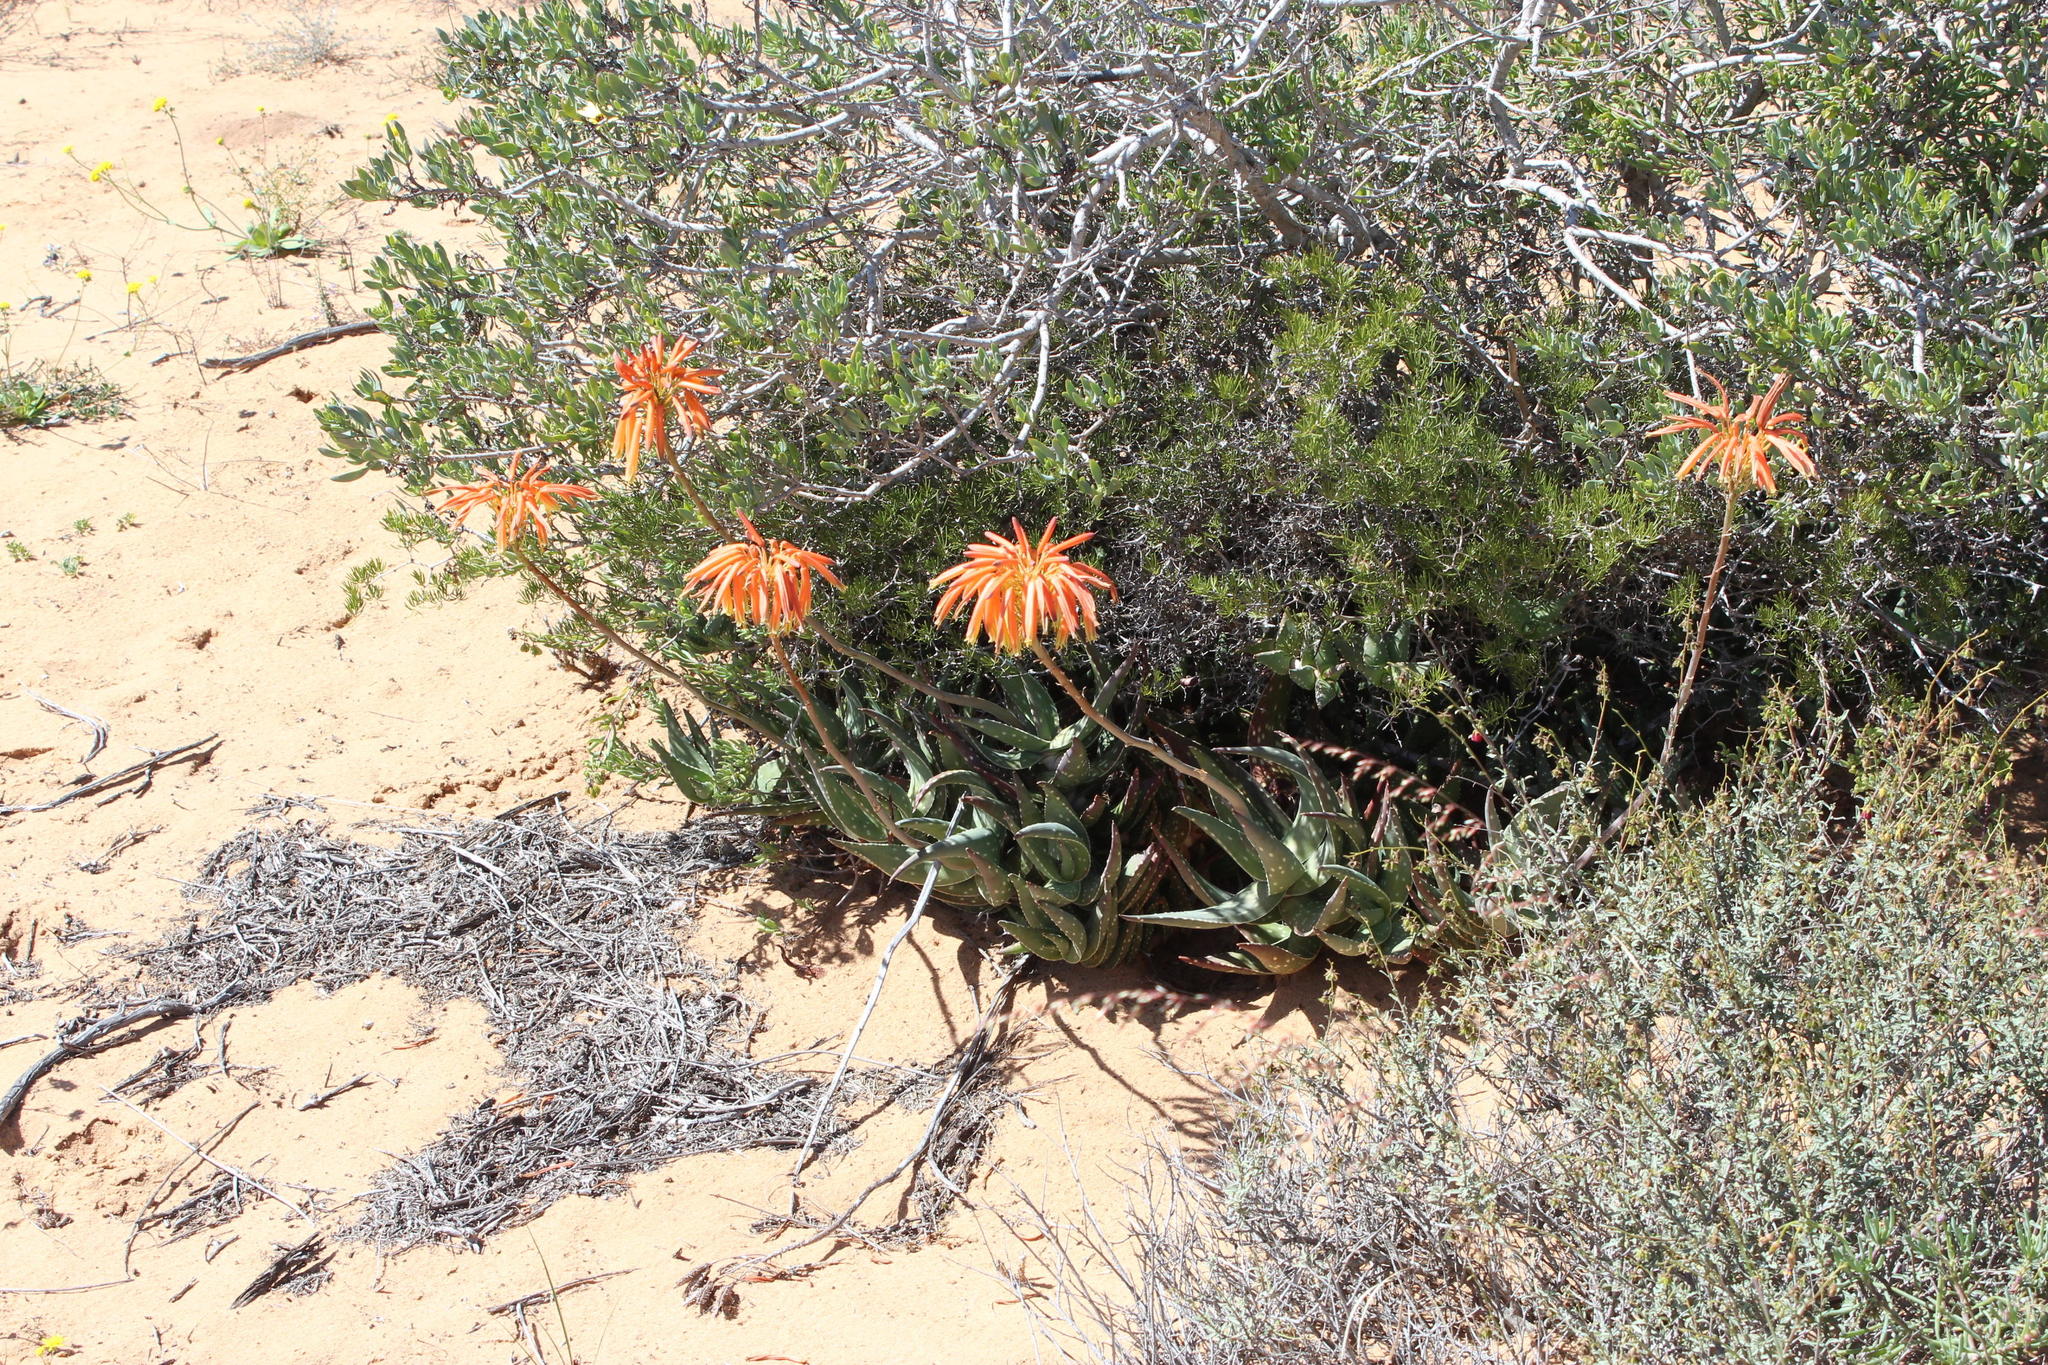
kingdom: Plantae
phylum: Tracheophyta
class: Liliopsida
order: Asparagales
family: Asphodelaceae
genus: Aloe
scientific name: Aloe arenicola
